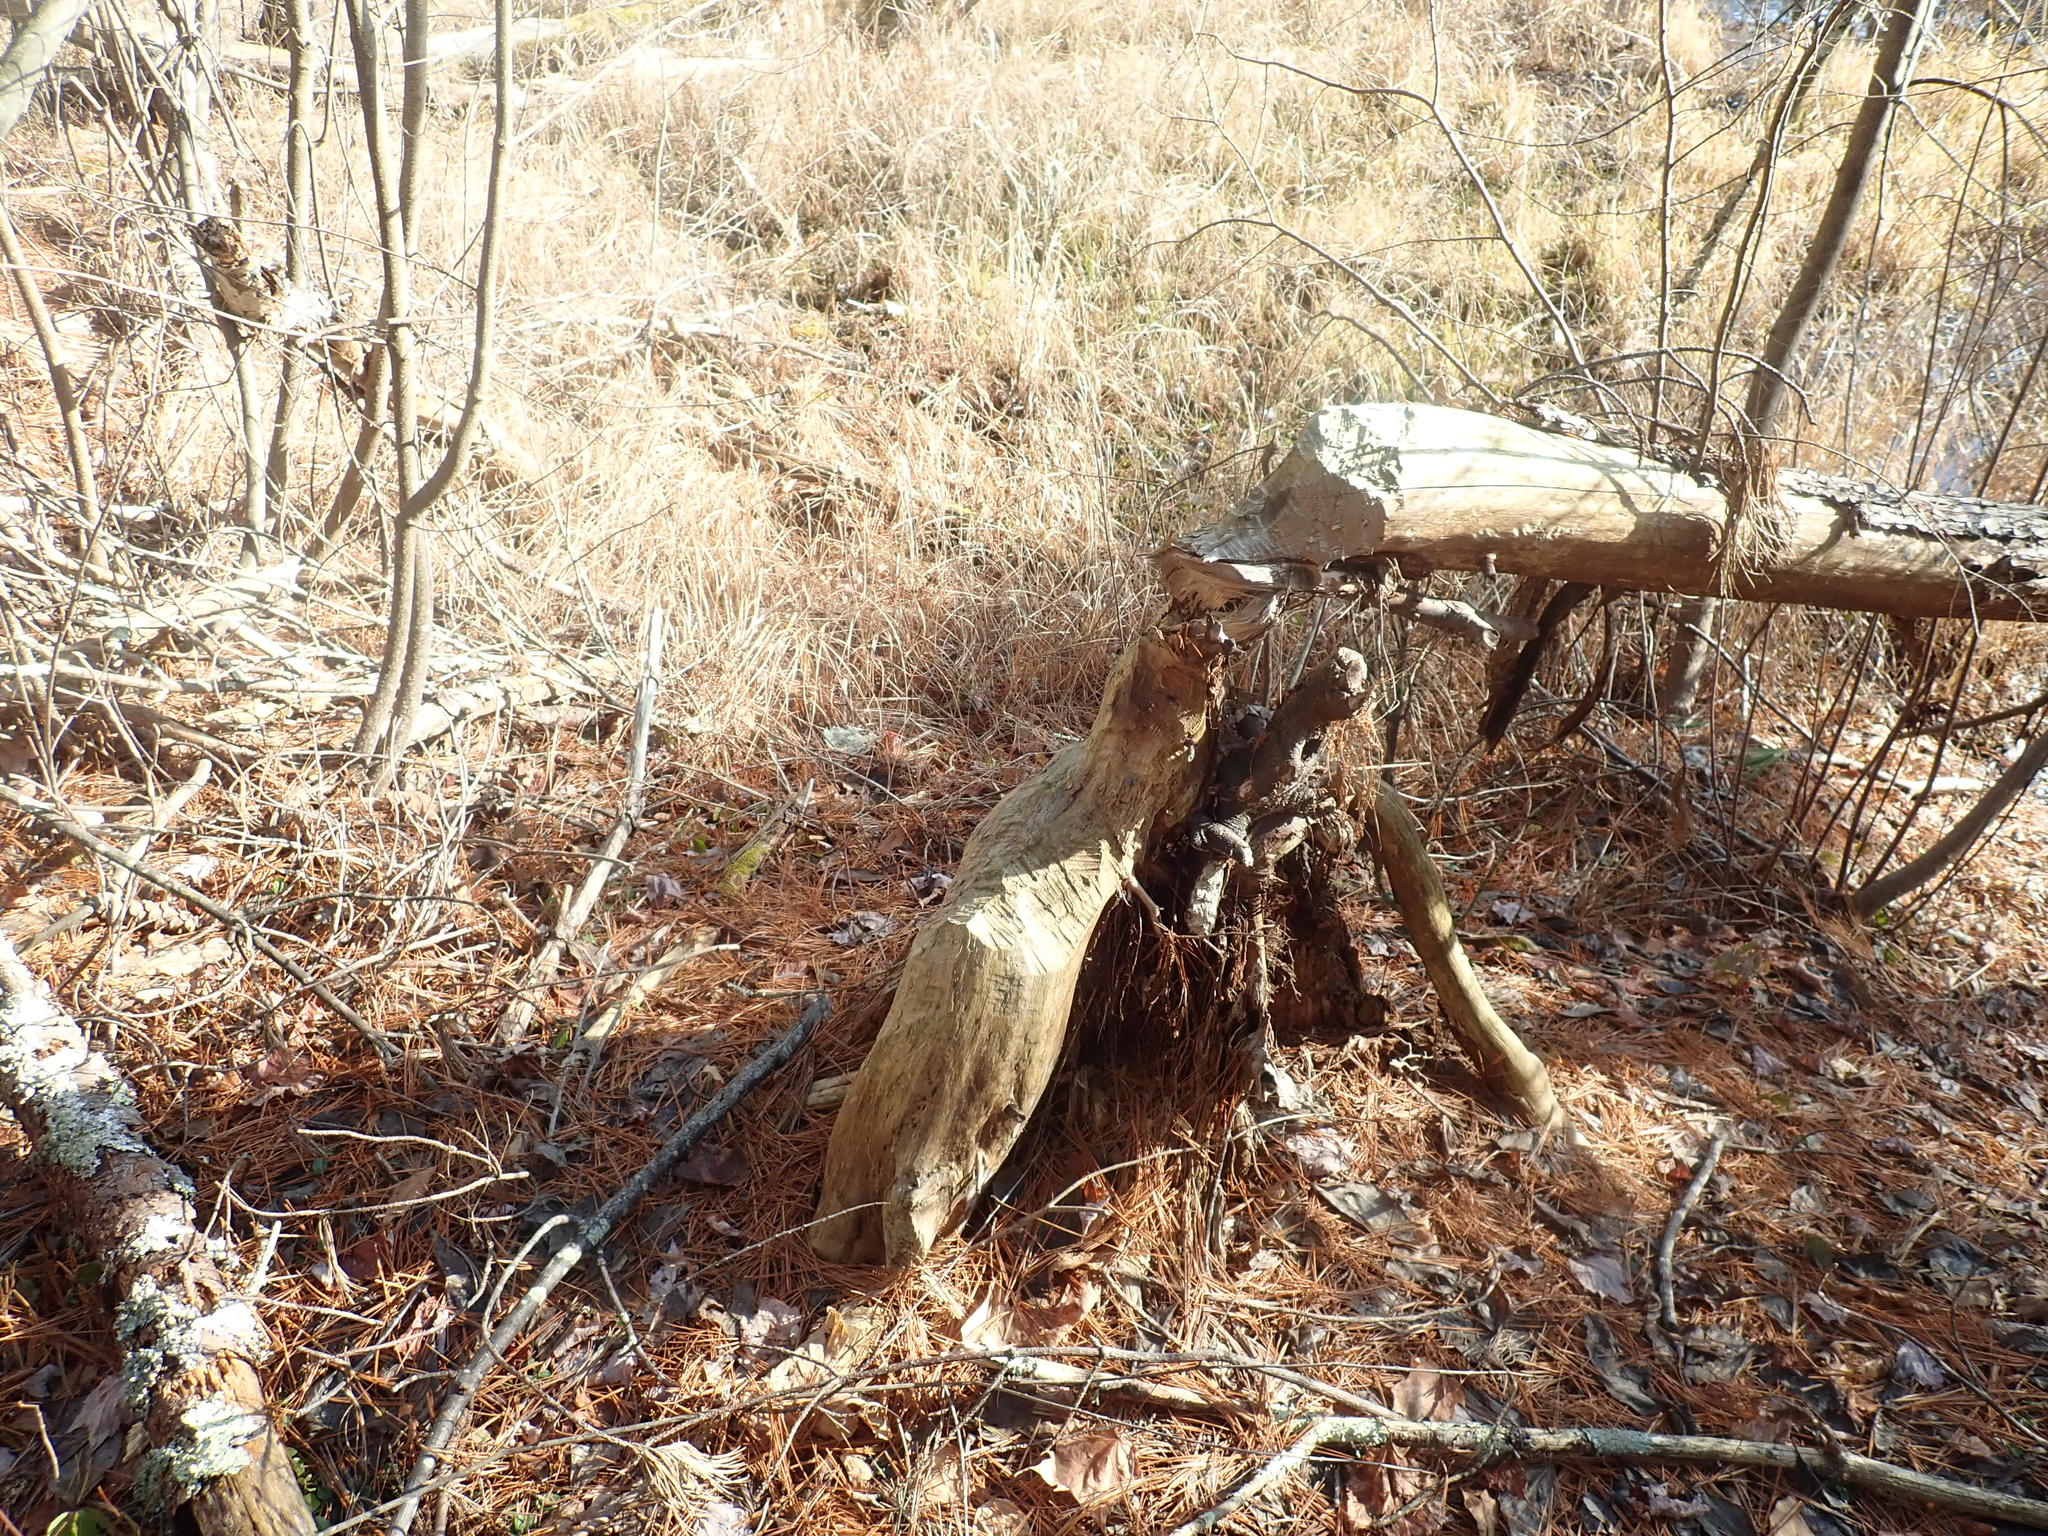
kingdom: Animalia
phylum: Chordata
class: Mammalia
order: Rodentia
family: Castoridae
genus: Castor
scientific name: Castor canadensis
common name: American beaver
